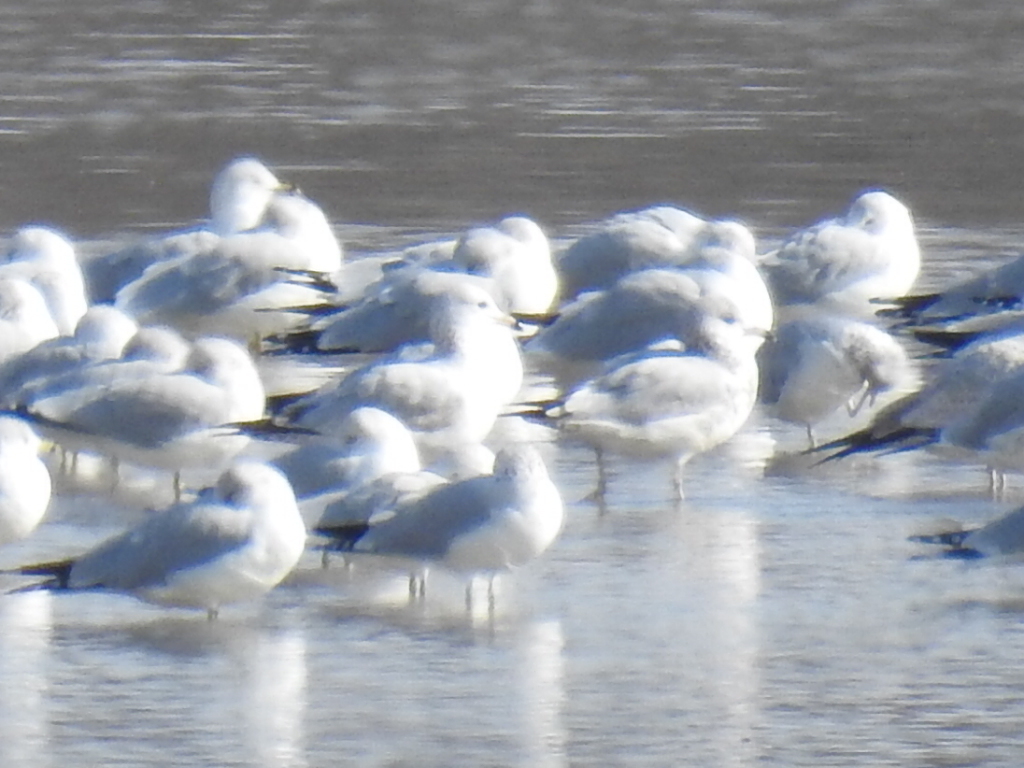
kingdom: Animalia
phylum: Chordata
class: Aves
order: Charadriiformes
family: Laridae
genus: Larus
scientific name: Larus delawarensis
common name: Ring-billed gull
